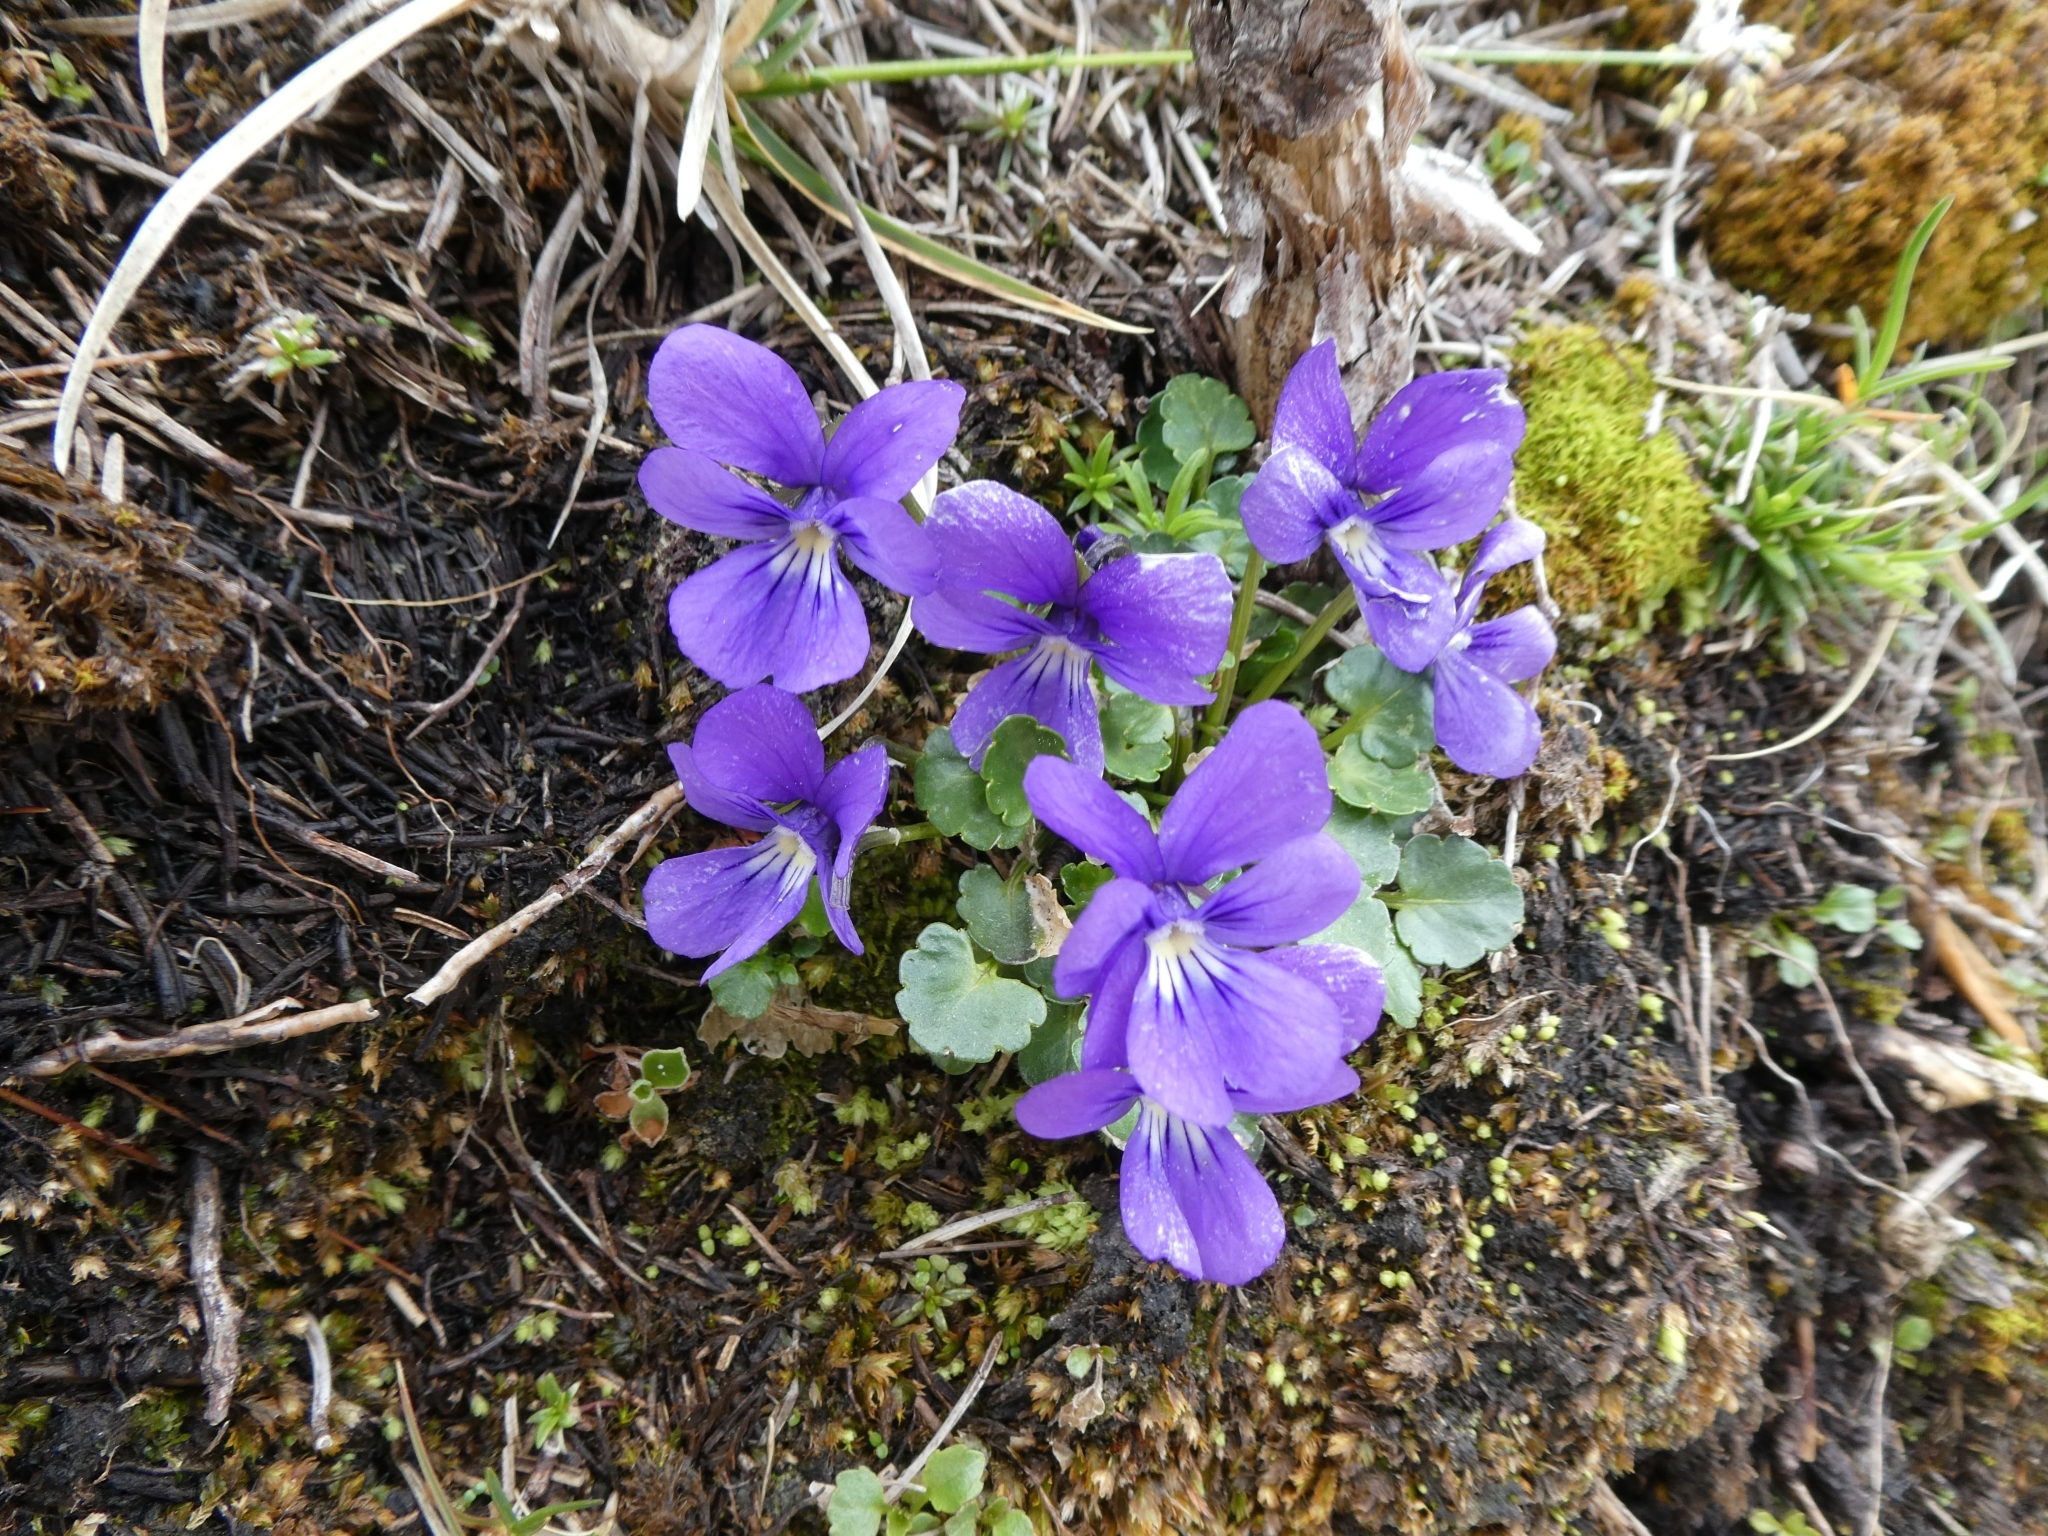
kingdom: Plantae
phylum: Tracheophyta
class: Magnoliopsida
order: Malpighiales
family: Violaceae
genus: Viola
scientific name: Viola alpina
